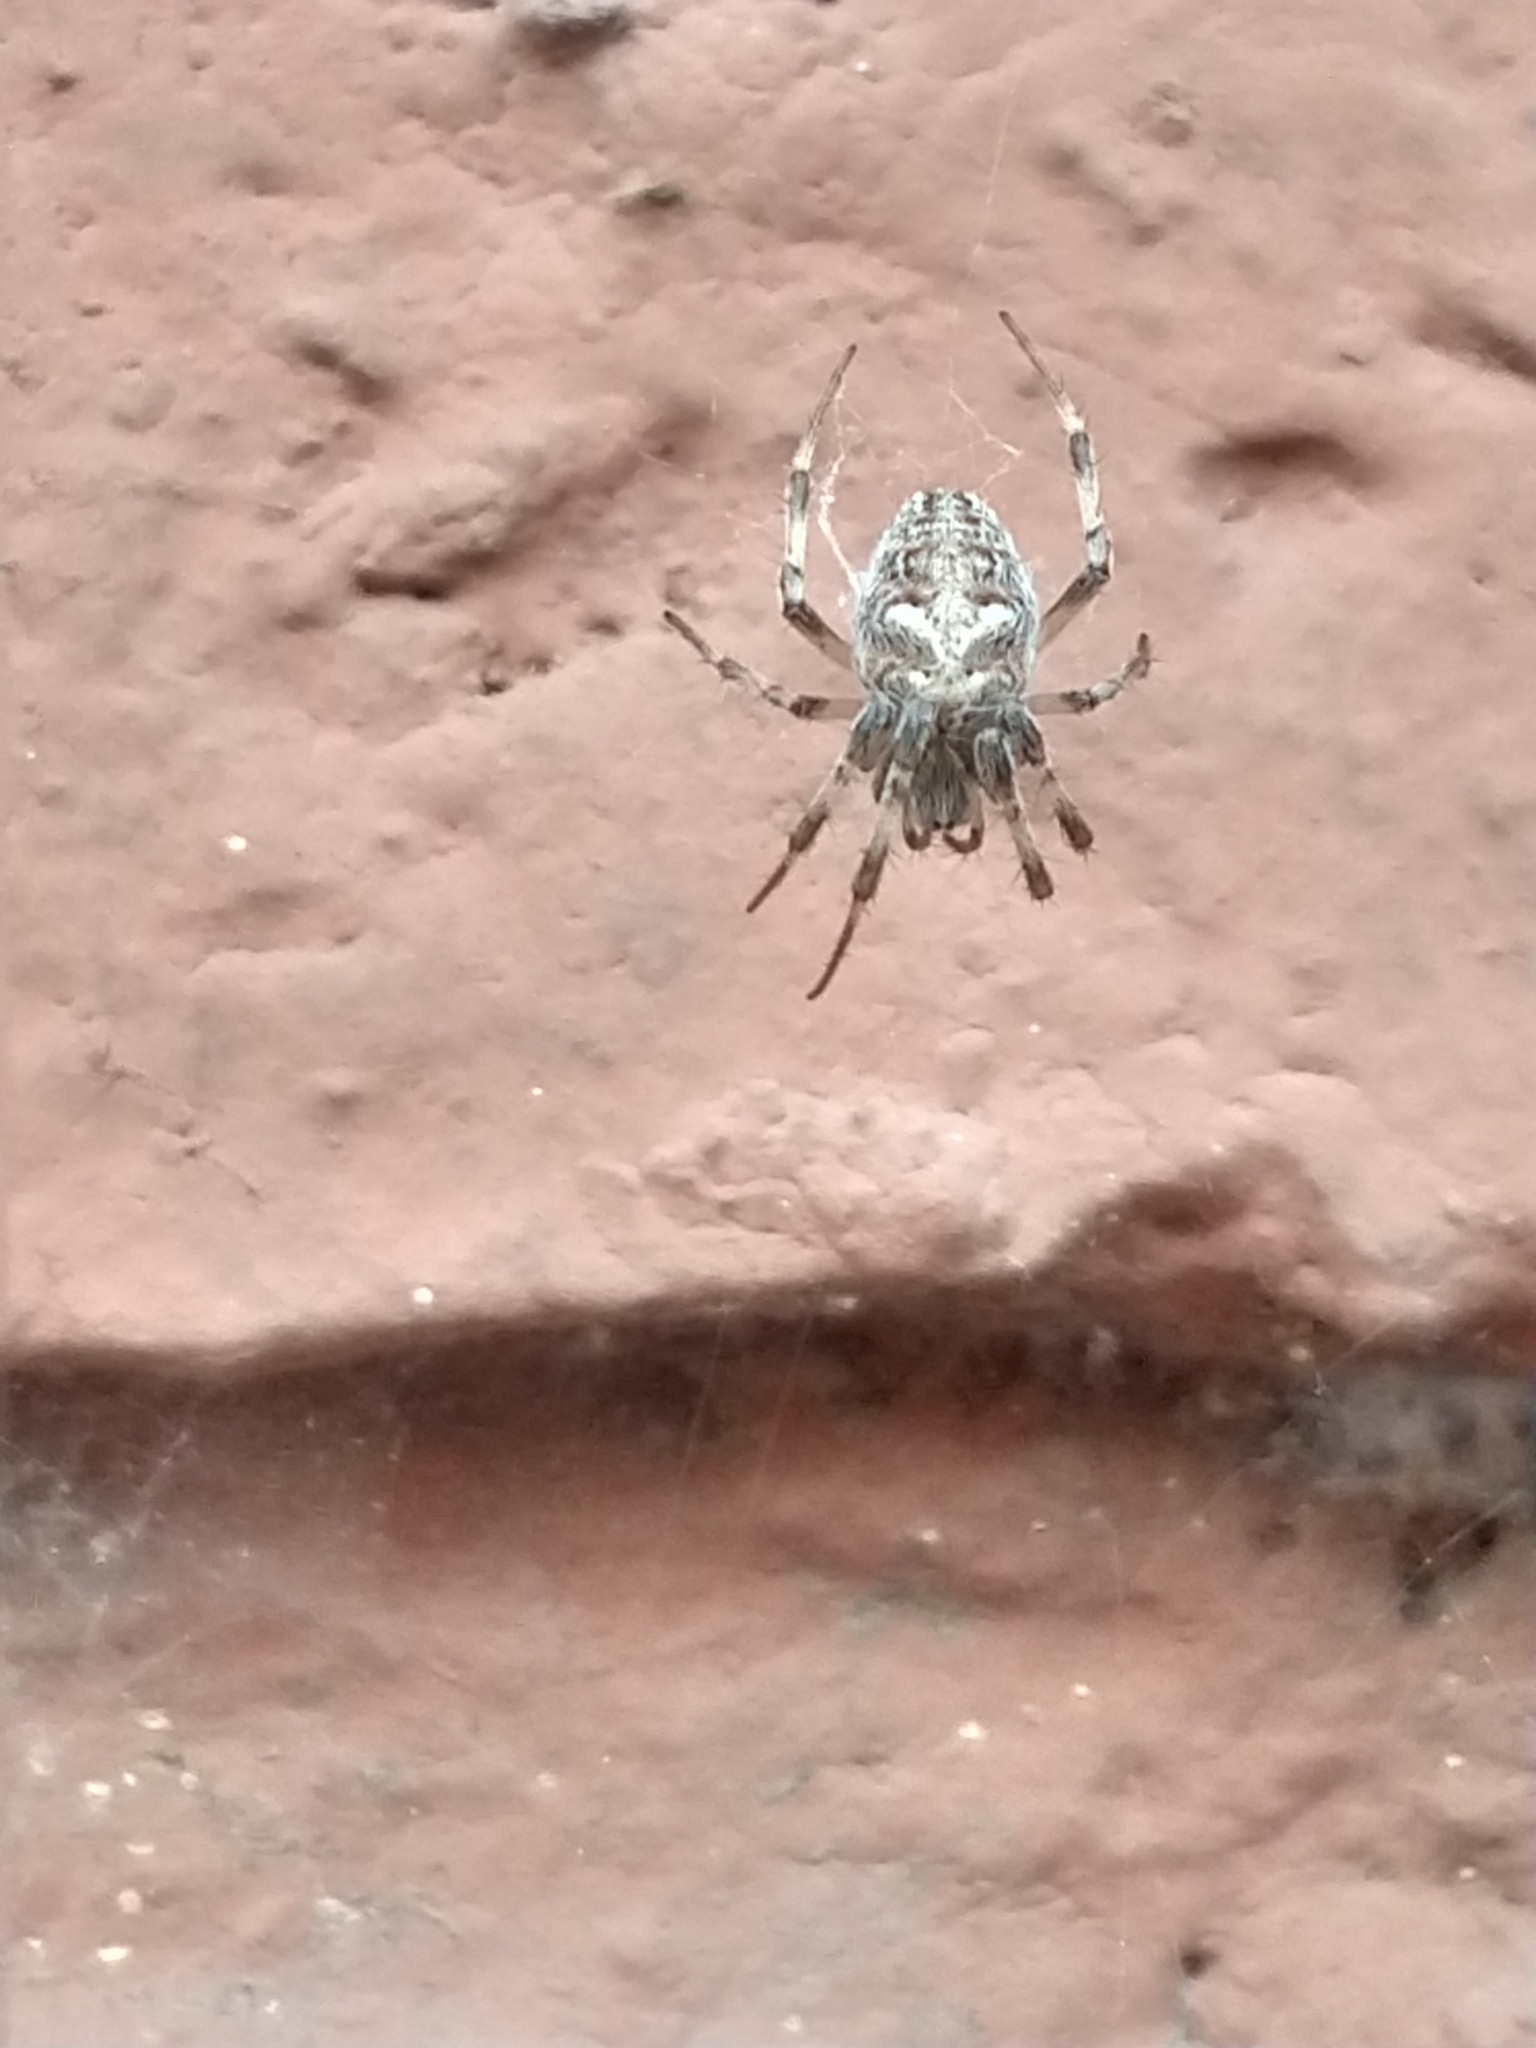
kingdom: Animalia
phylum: Arthropoda
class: Arachnida
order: Araneae
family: Araneidae
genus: Metepeira
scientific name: Metepeira
